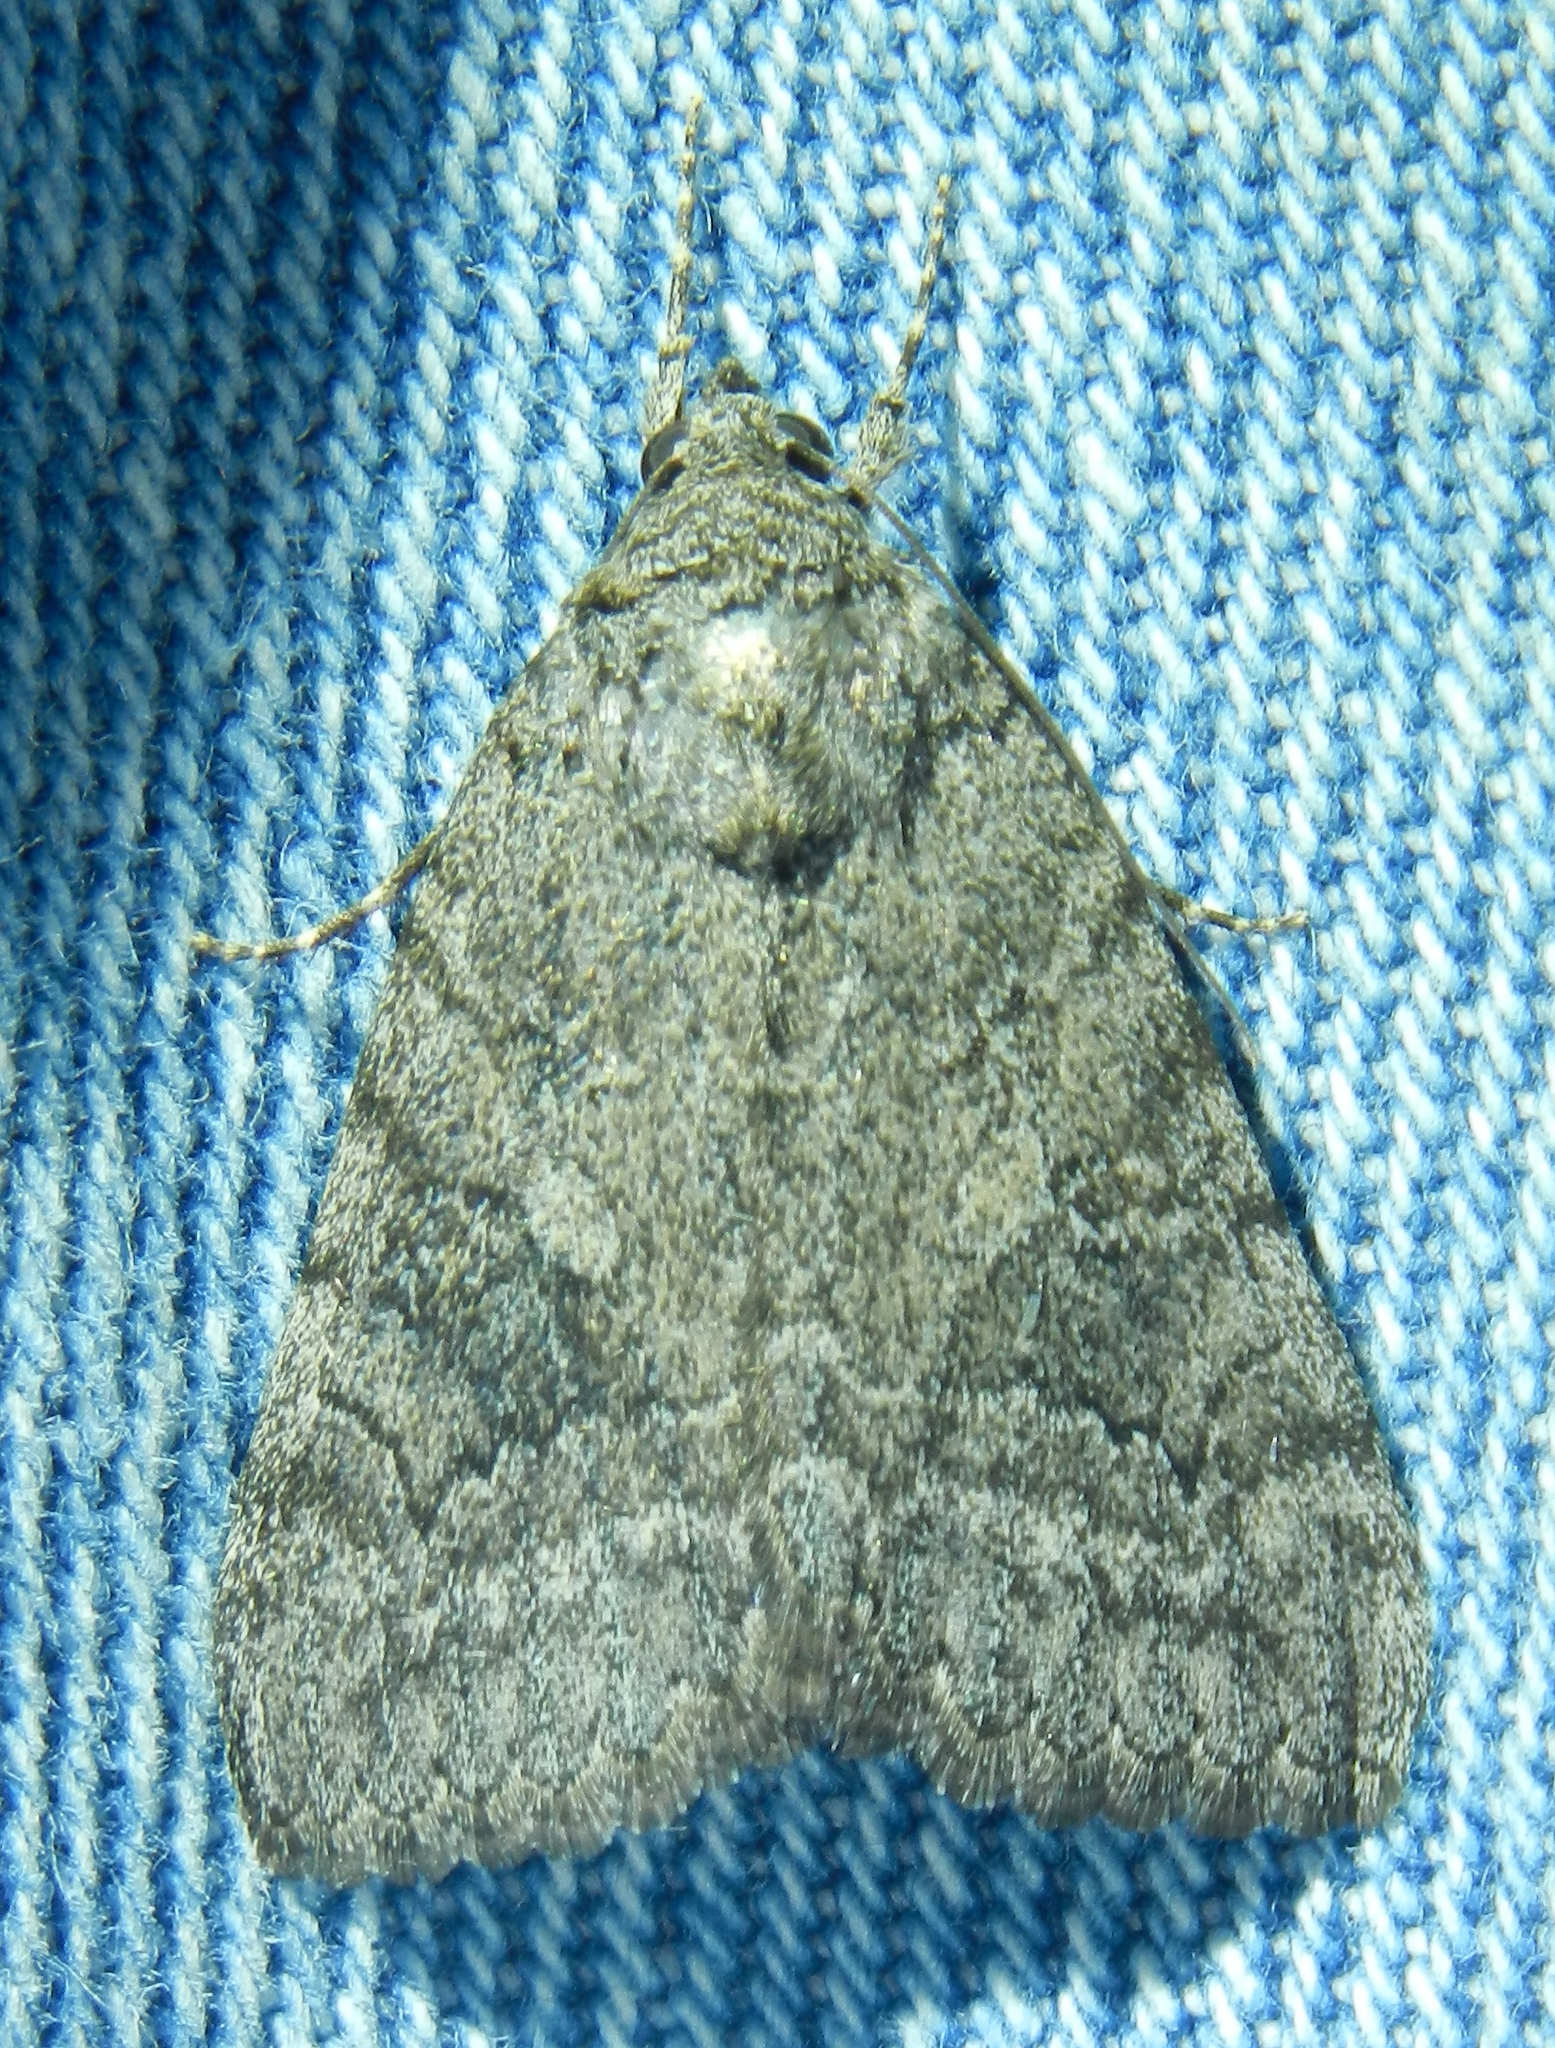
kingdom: Animalia
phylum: Arthropoda
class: Insecta
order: Lepidoptera
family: Erebidae
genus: Catocala
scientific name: Catocala chelidonia
